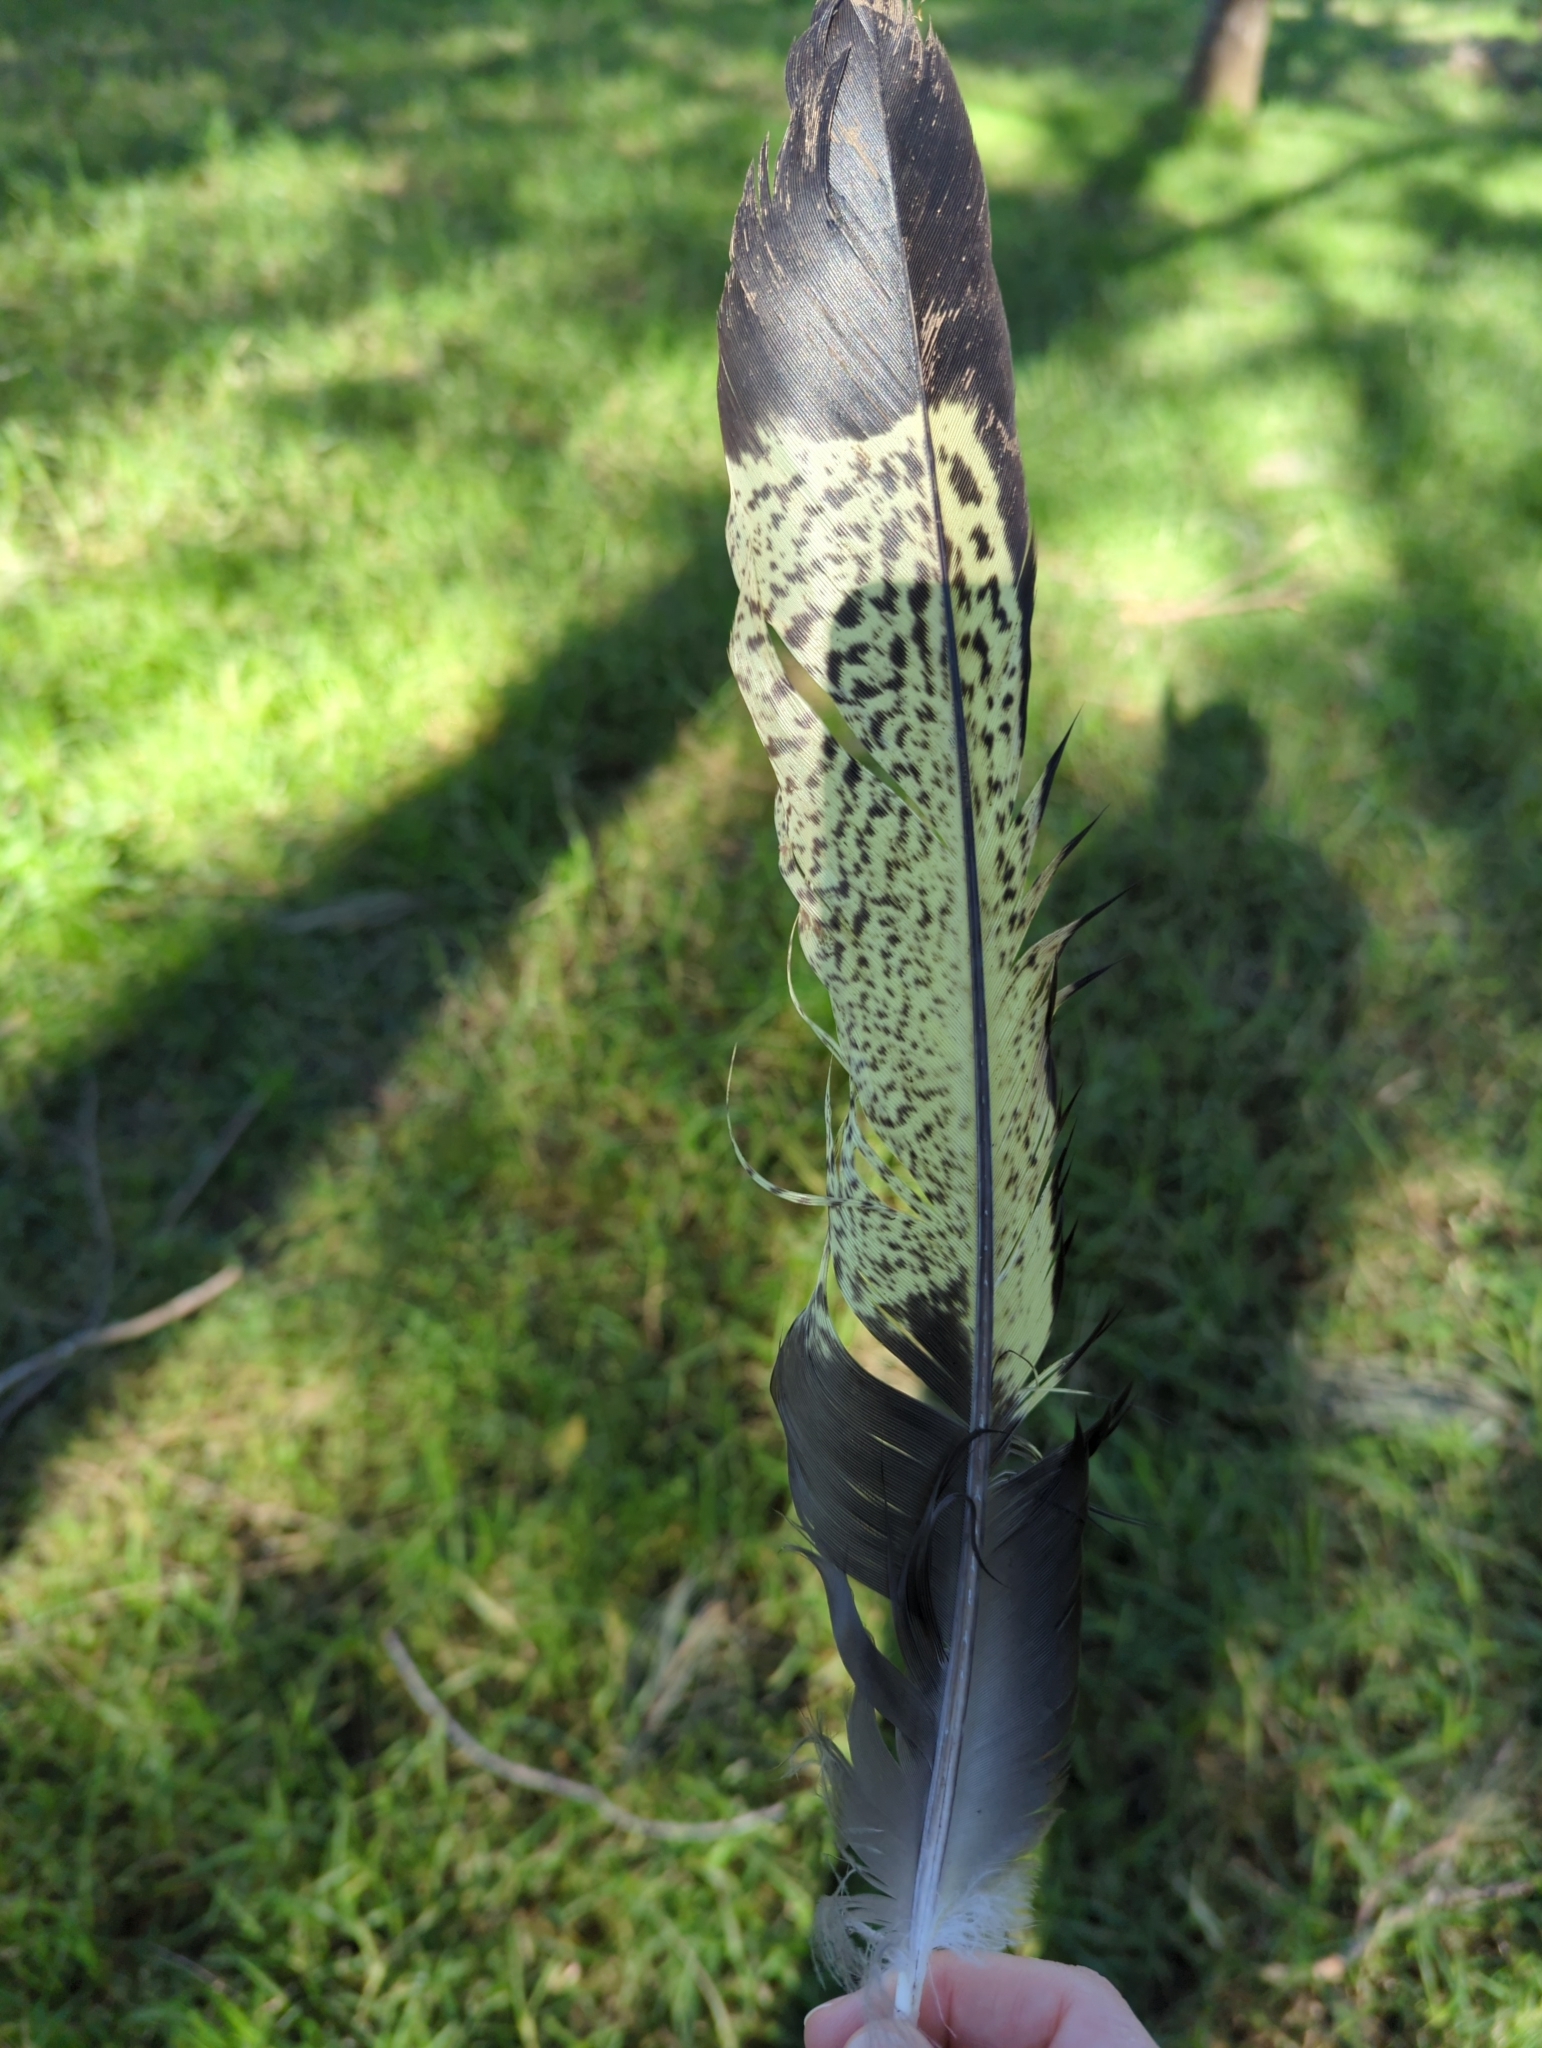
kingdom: Animalia
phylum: Chordata
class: Aves
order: Psittaciformes
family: Cacatuidae
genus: Zanda
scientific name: Zanda funerea
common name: Yellow-tailed black-cockatoo
